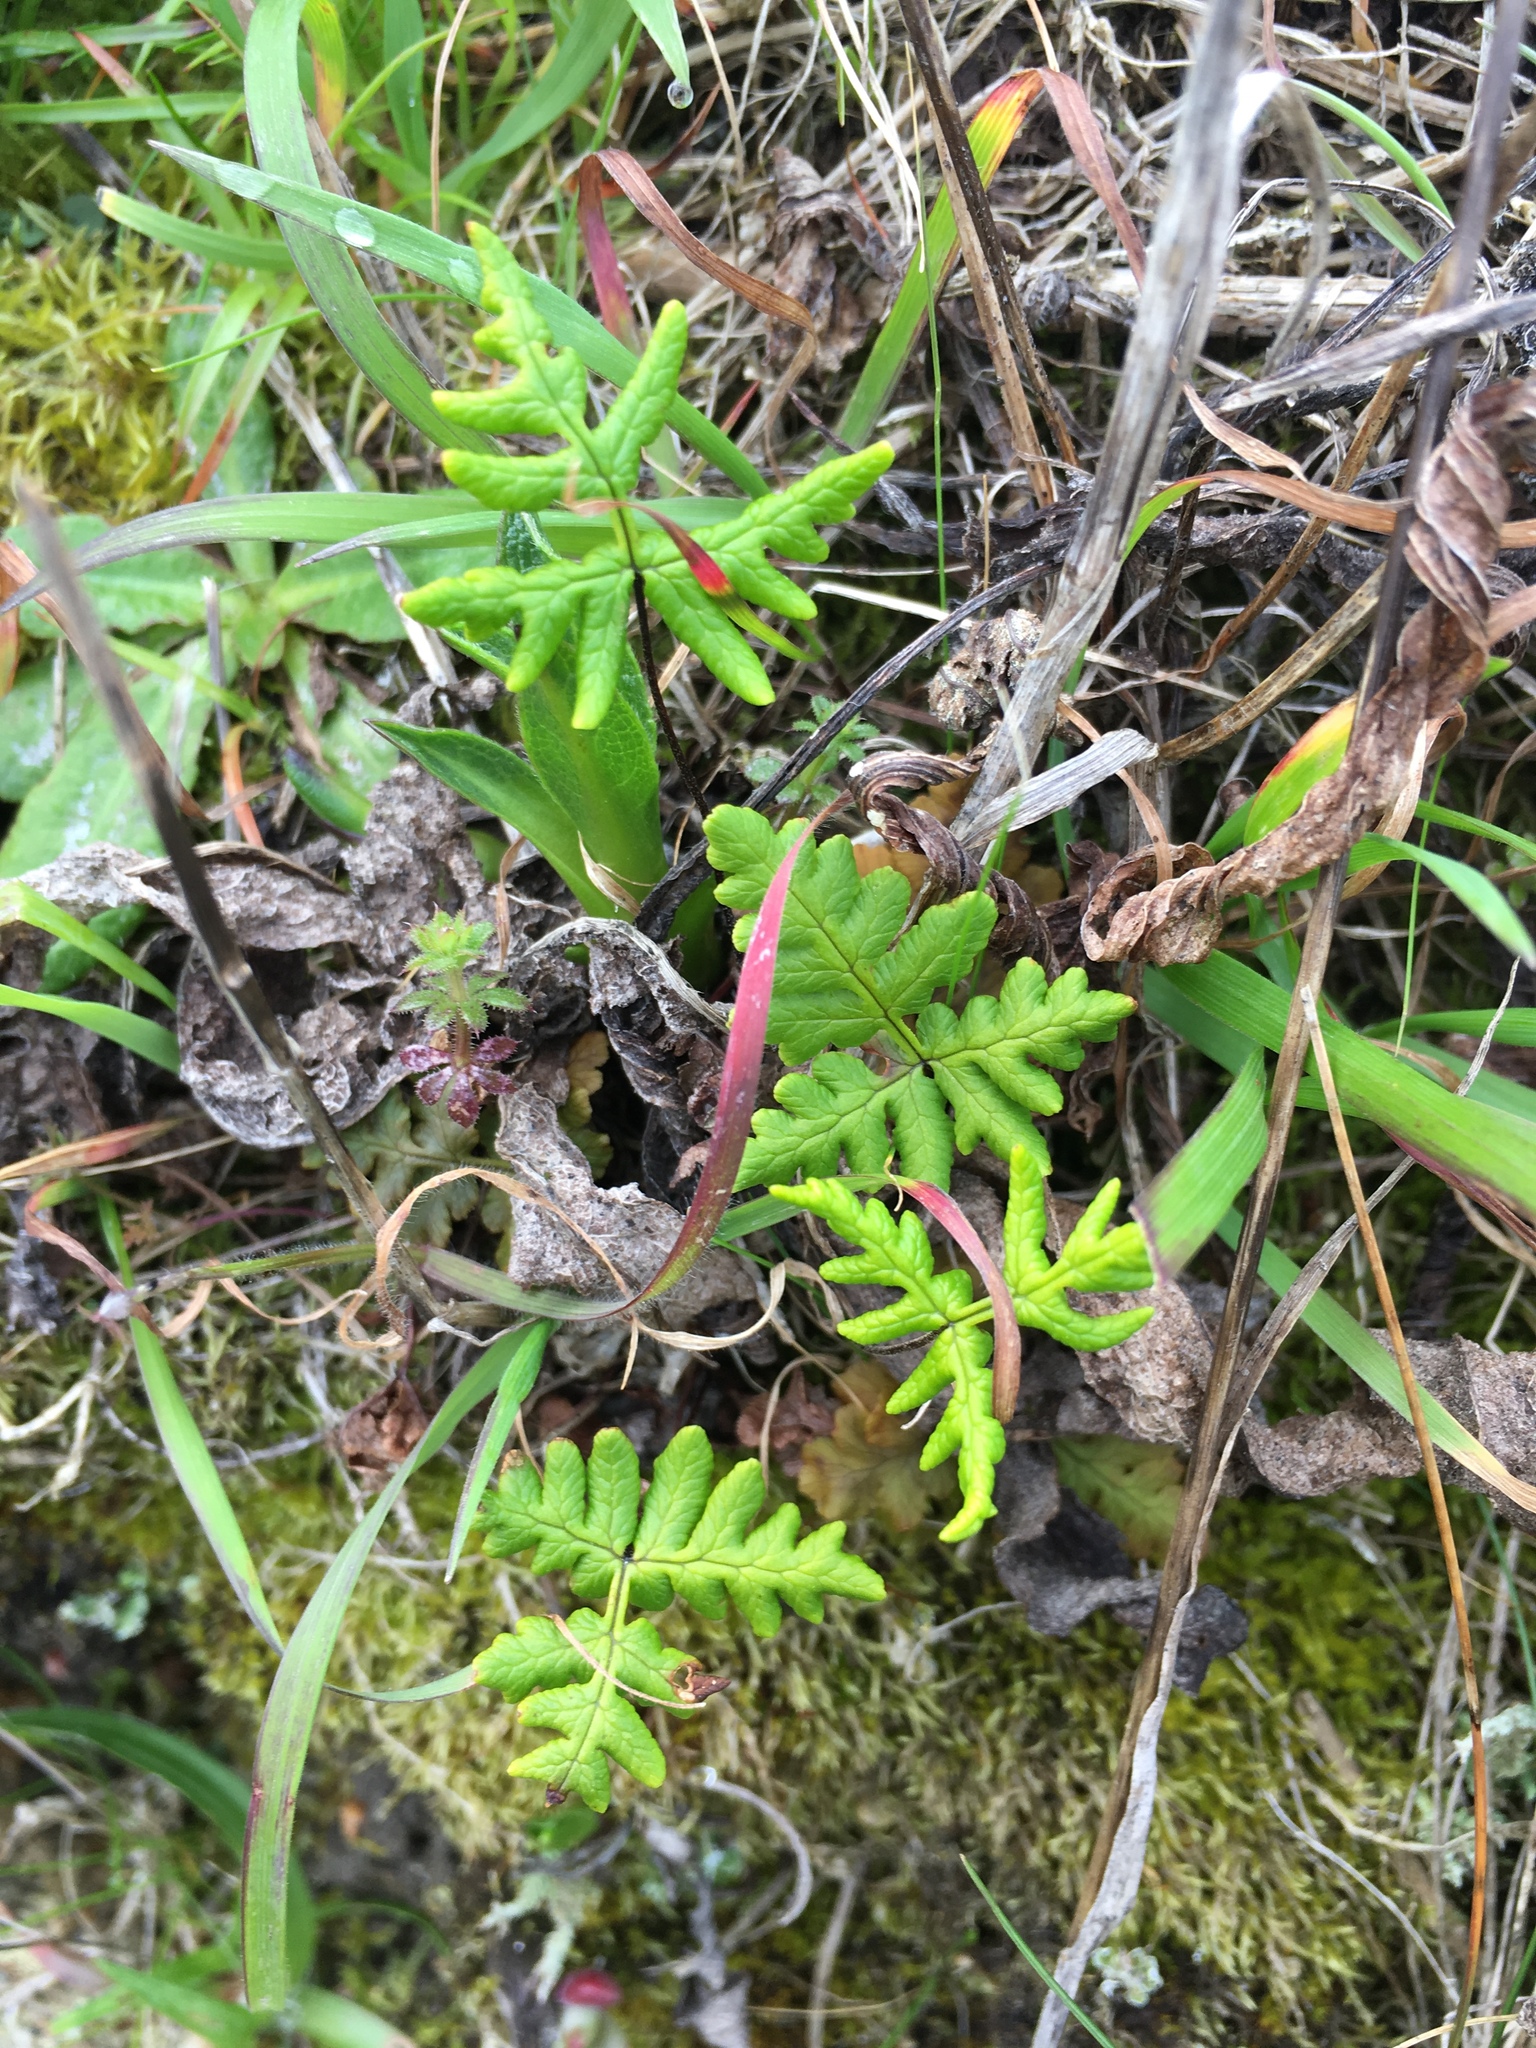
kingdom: Plantae
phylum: Tracheophyta
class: Polypodiopsida
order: Polypodiales
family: Pteridaceae
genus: Pentagramma
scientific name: Pentagramma triangularis
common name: Gold fern
